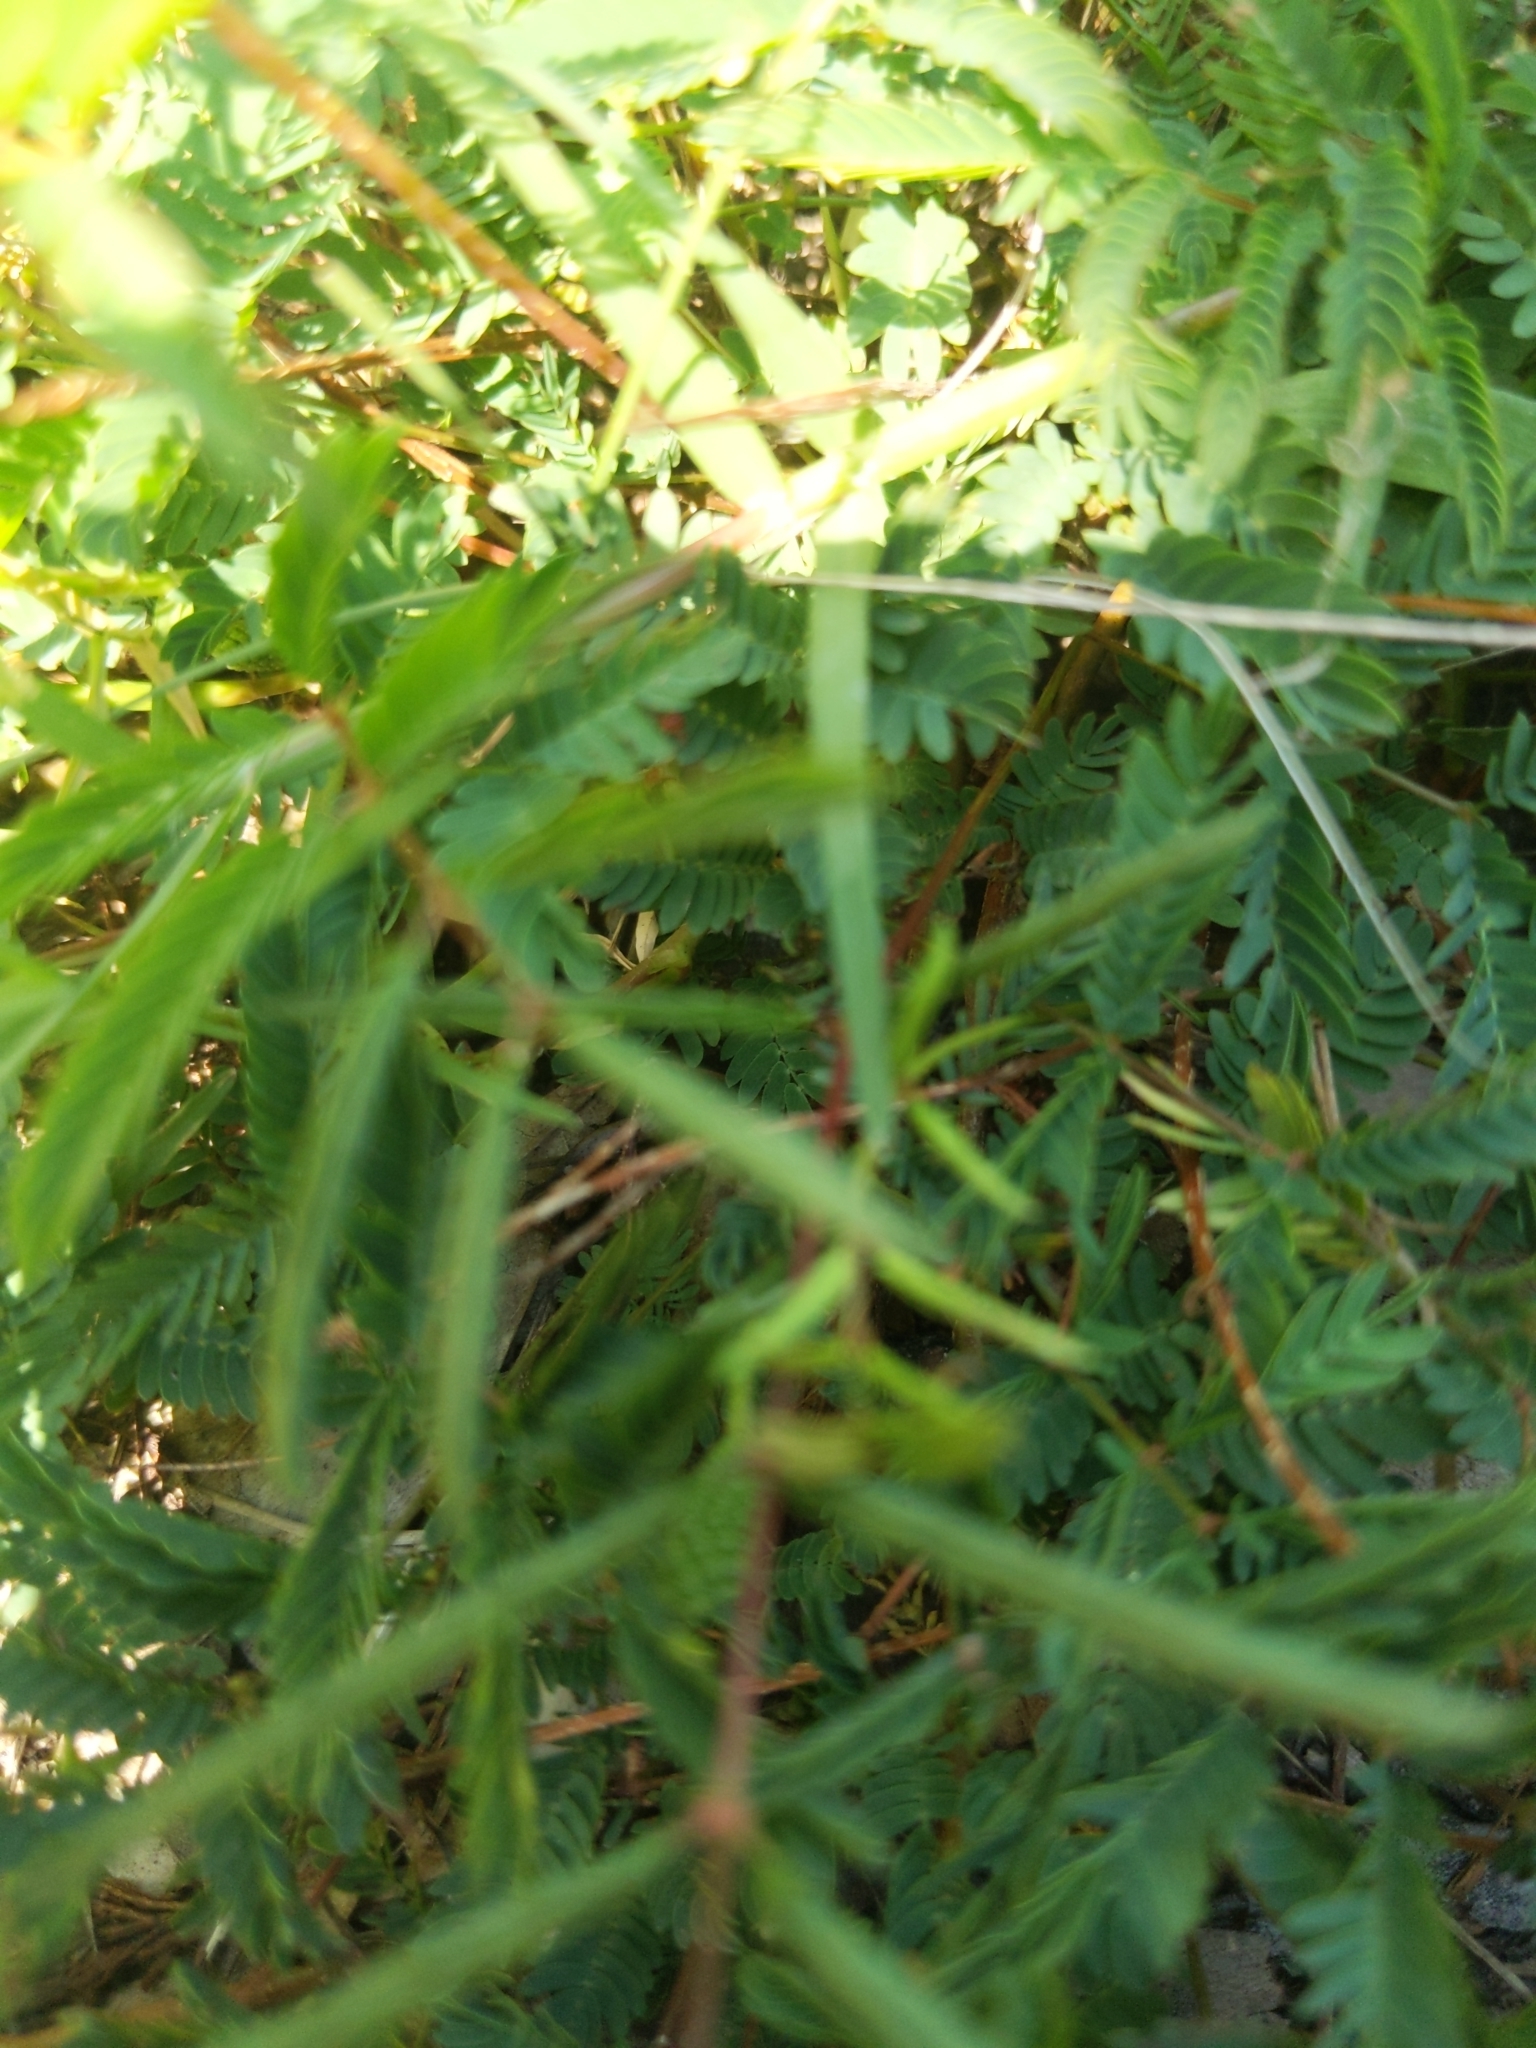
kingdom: Plantae
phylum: Tracheophyta
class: Magnoliopsida
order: Fabales
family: Fabaceae
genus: Mimosa
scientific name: Mimosa strigillosa
